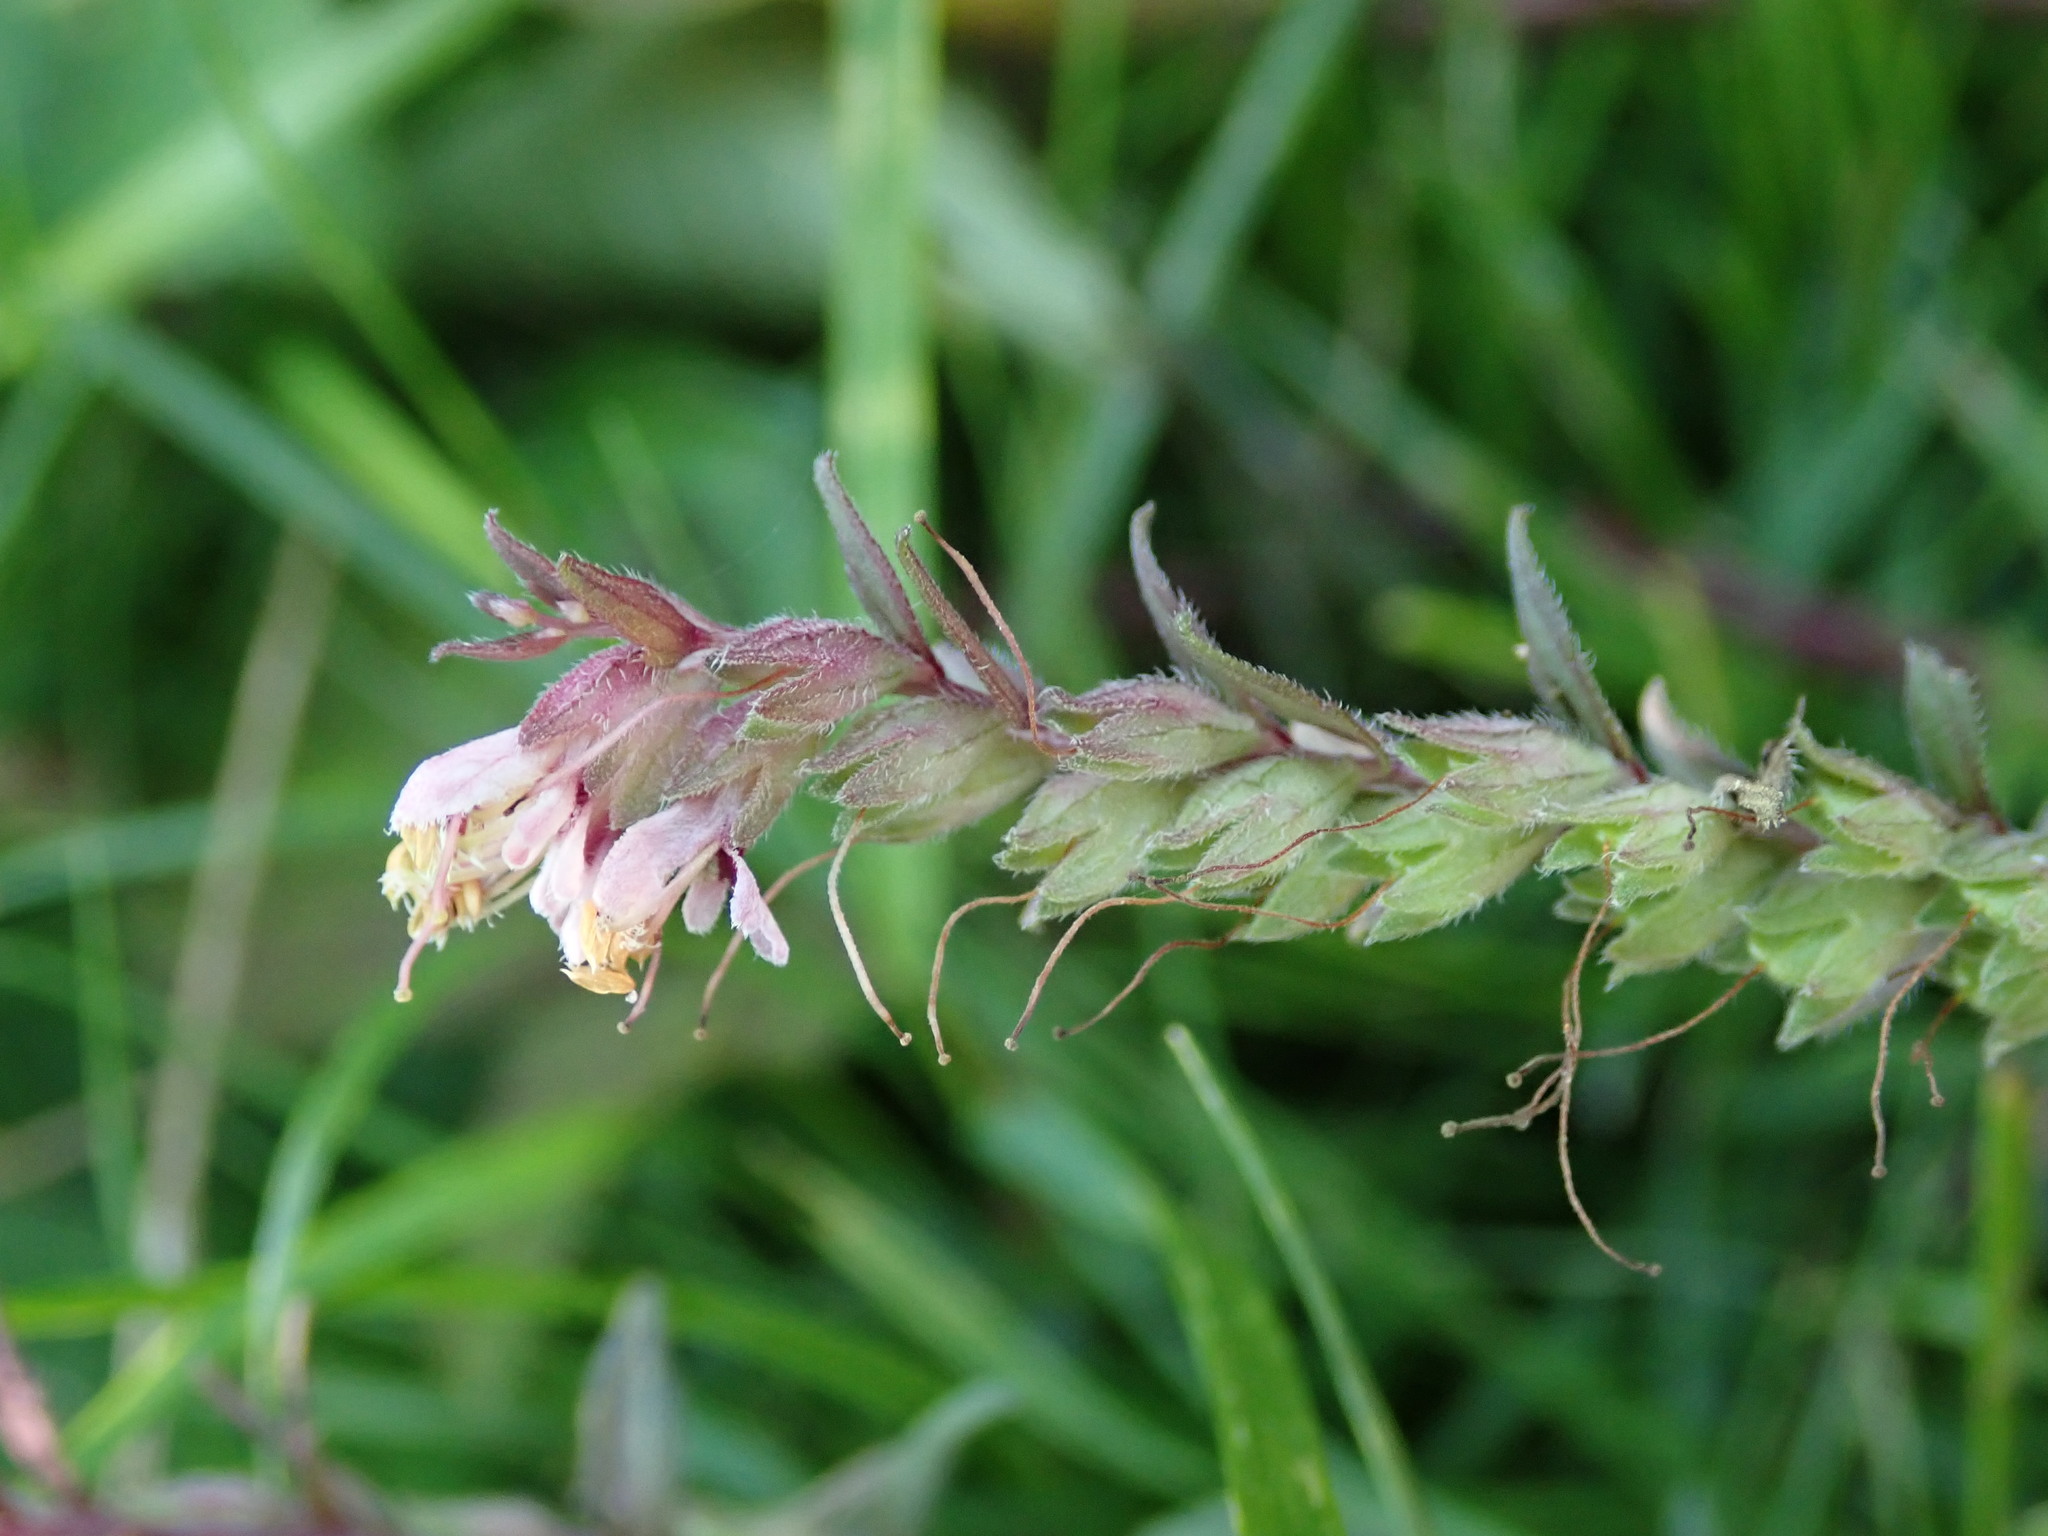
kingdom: Plantae
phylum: Tracheophyta
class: Magnoliopsida
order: Lamiales
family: Orobanchaceae
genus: Odontites
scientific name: Odontites vulgaris
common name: Broomrape
